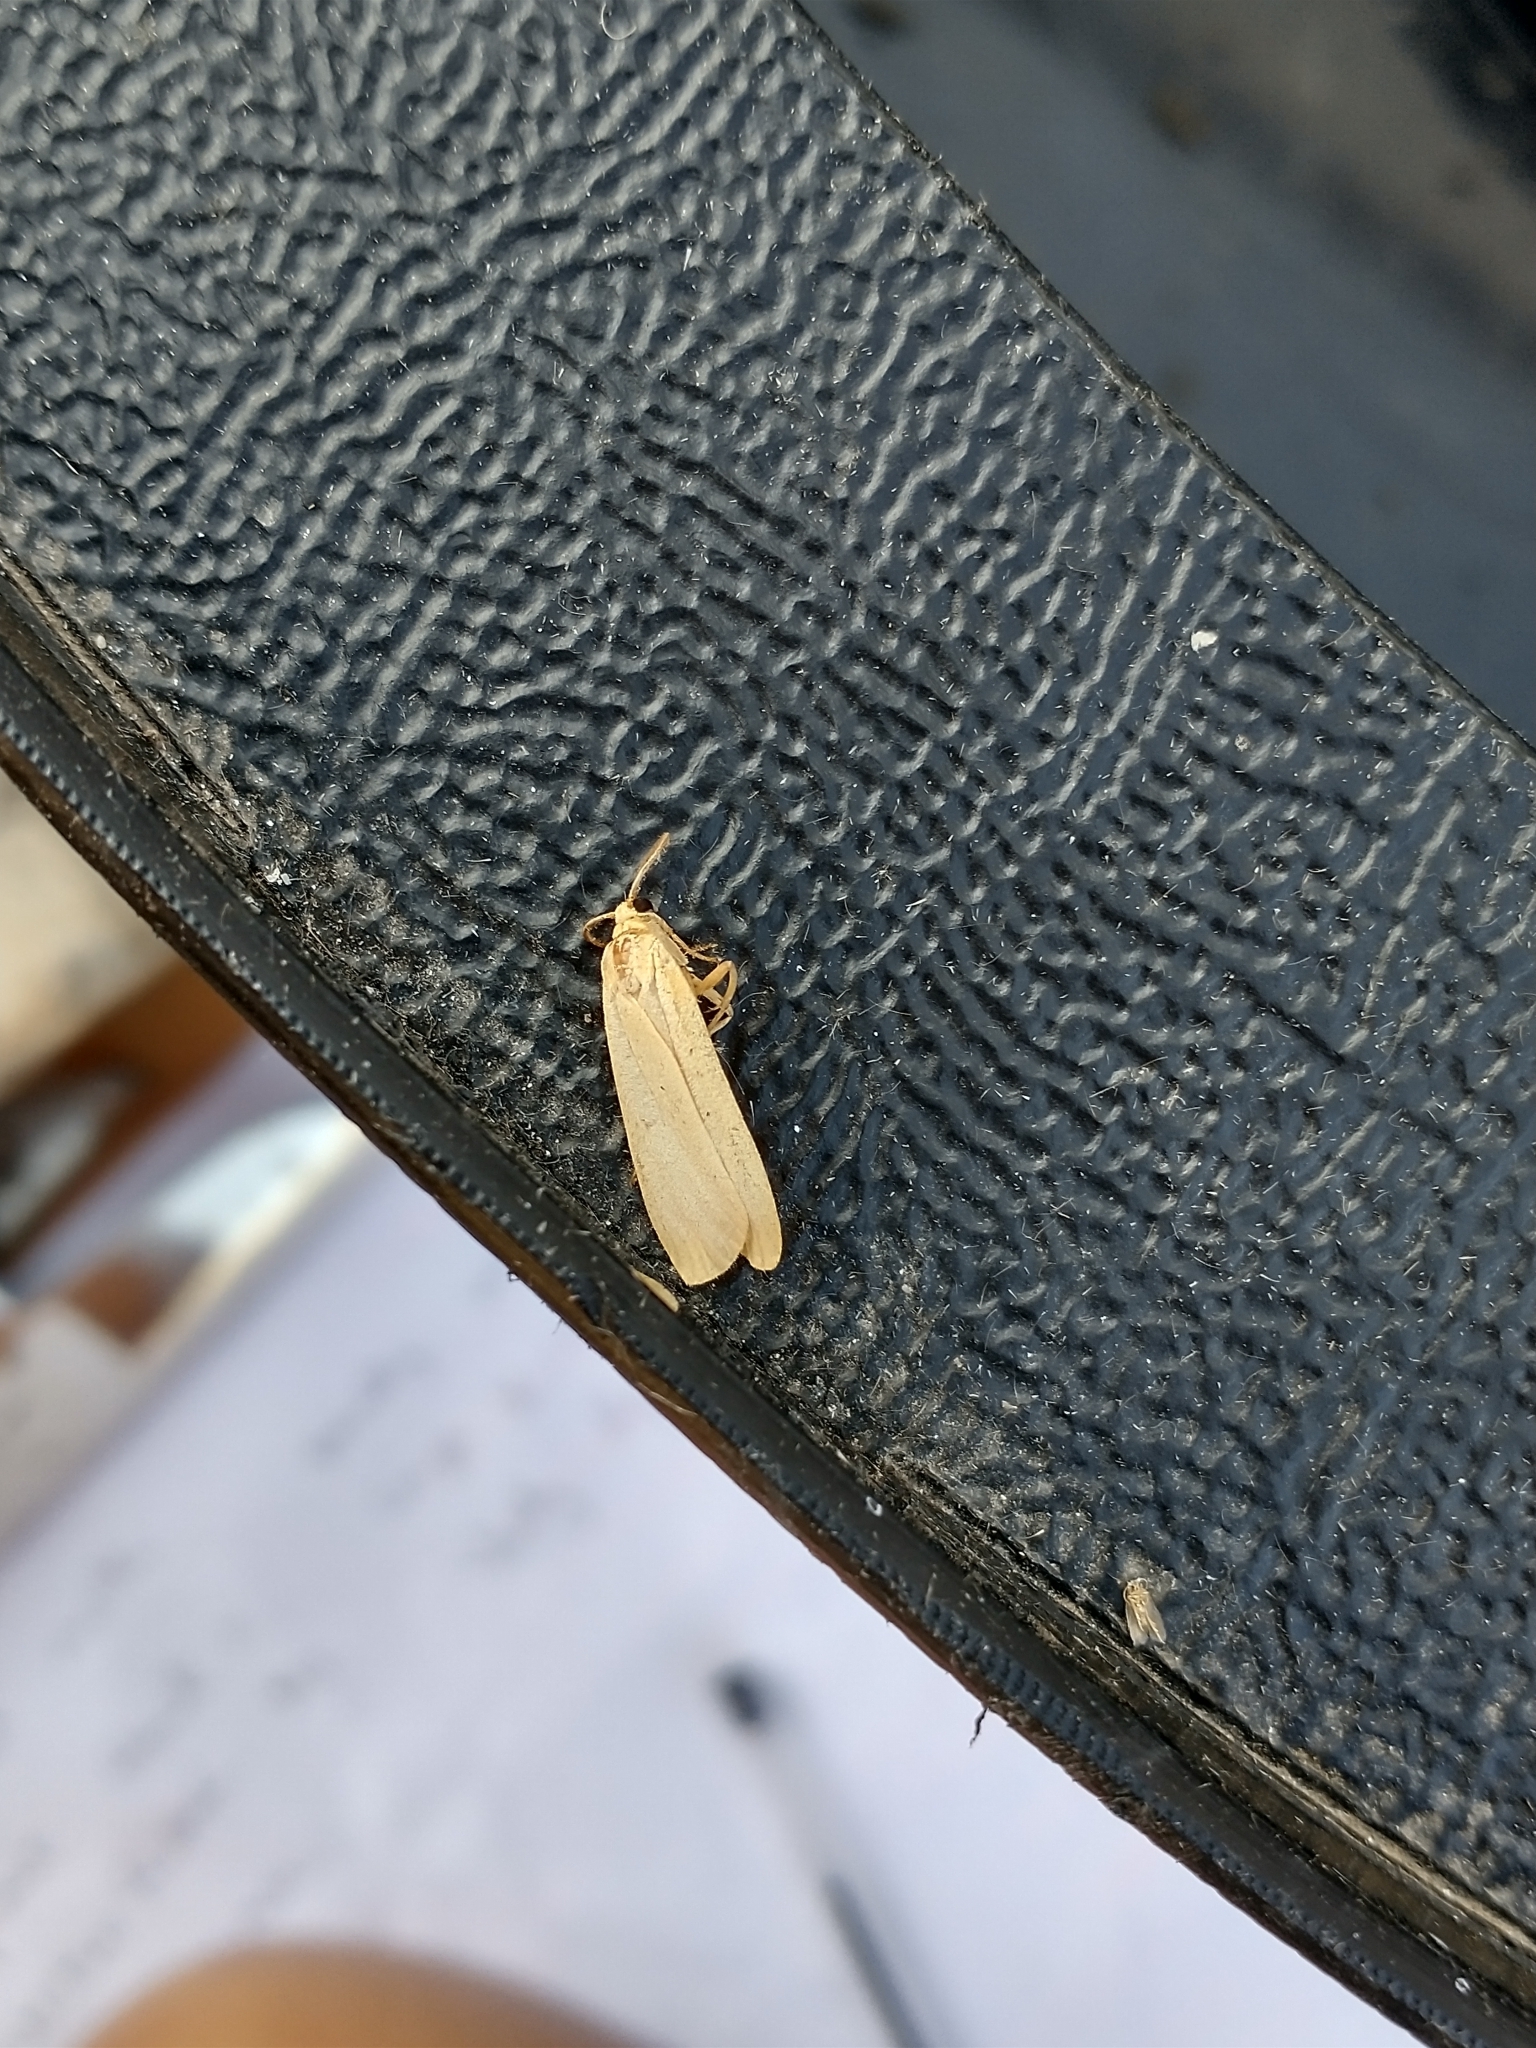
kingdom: Animalia
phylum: Arthropoda
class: Insecta
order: Lepidoptera
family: Erebidae
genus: Katha
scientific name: Katha depressa
